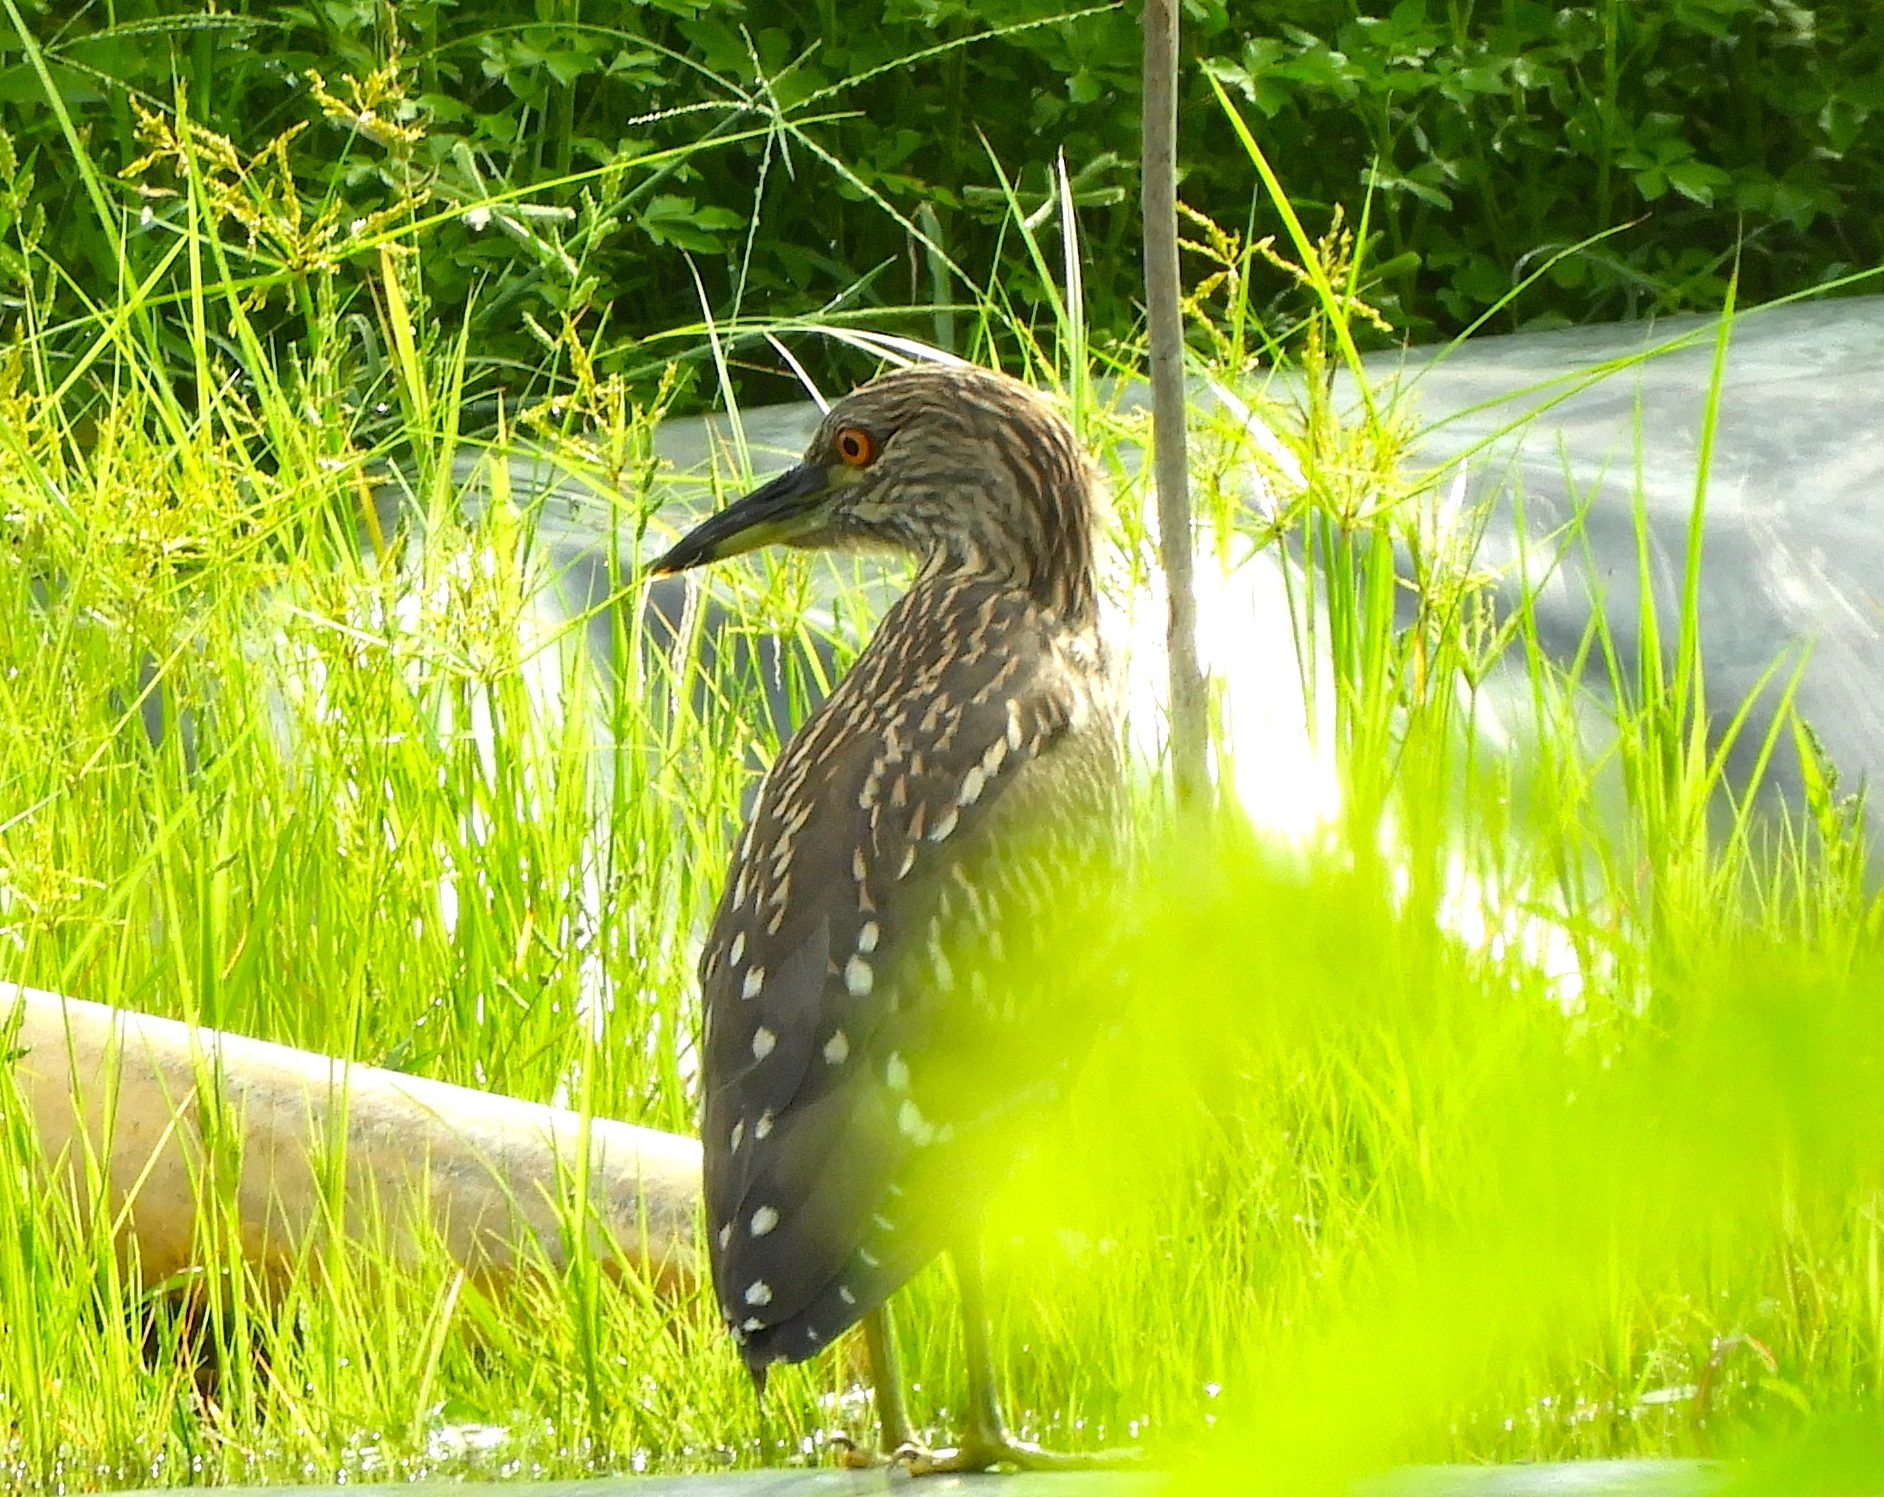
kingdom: Animalia
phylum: Chordata
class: Aves
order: Pelecaniformes
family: Ardeidae
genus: Nycticorax
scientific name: Nycticorax nycticorax
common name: Black-crowned night heron
